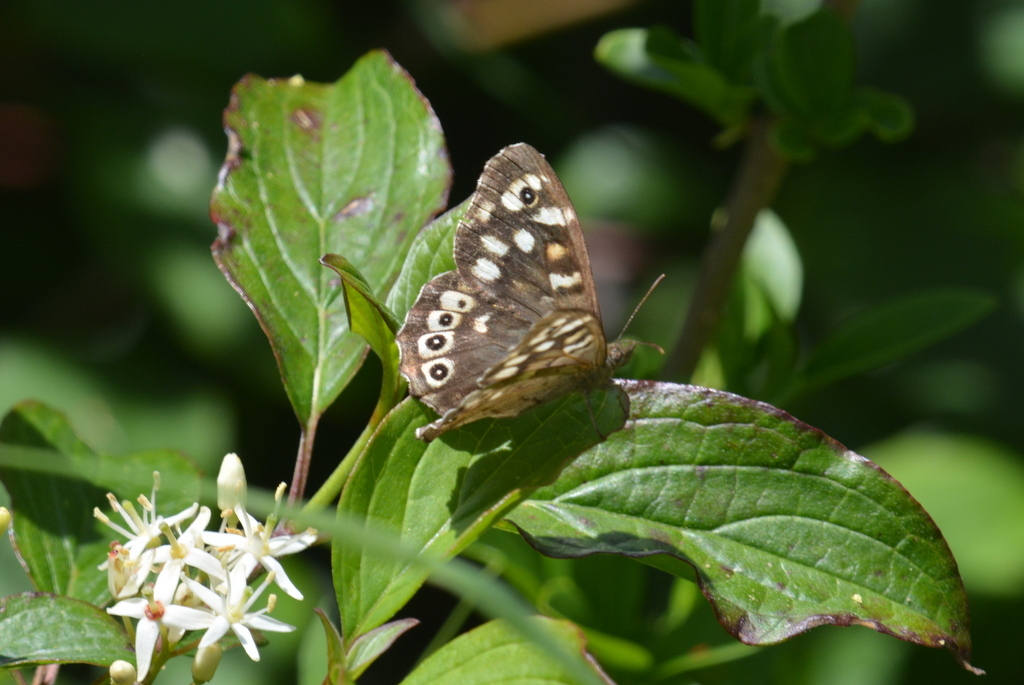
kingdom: Animalia
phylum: Arthropoda
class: Insecta
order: Lepidoptera
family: Nymphalidae
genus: Pararge
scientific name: Pararge aegeria
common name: Speckled wood
